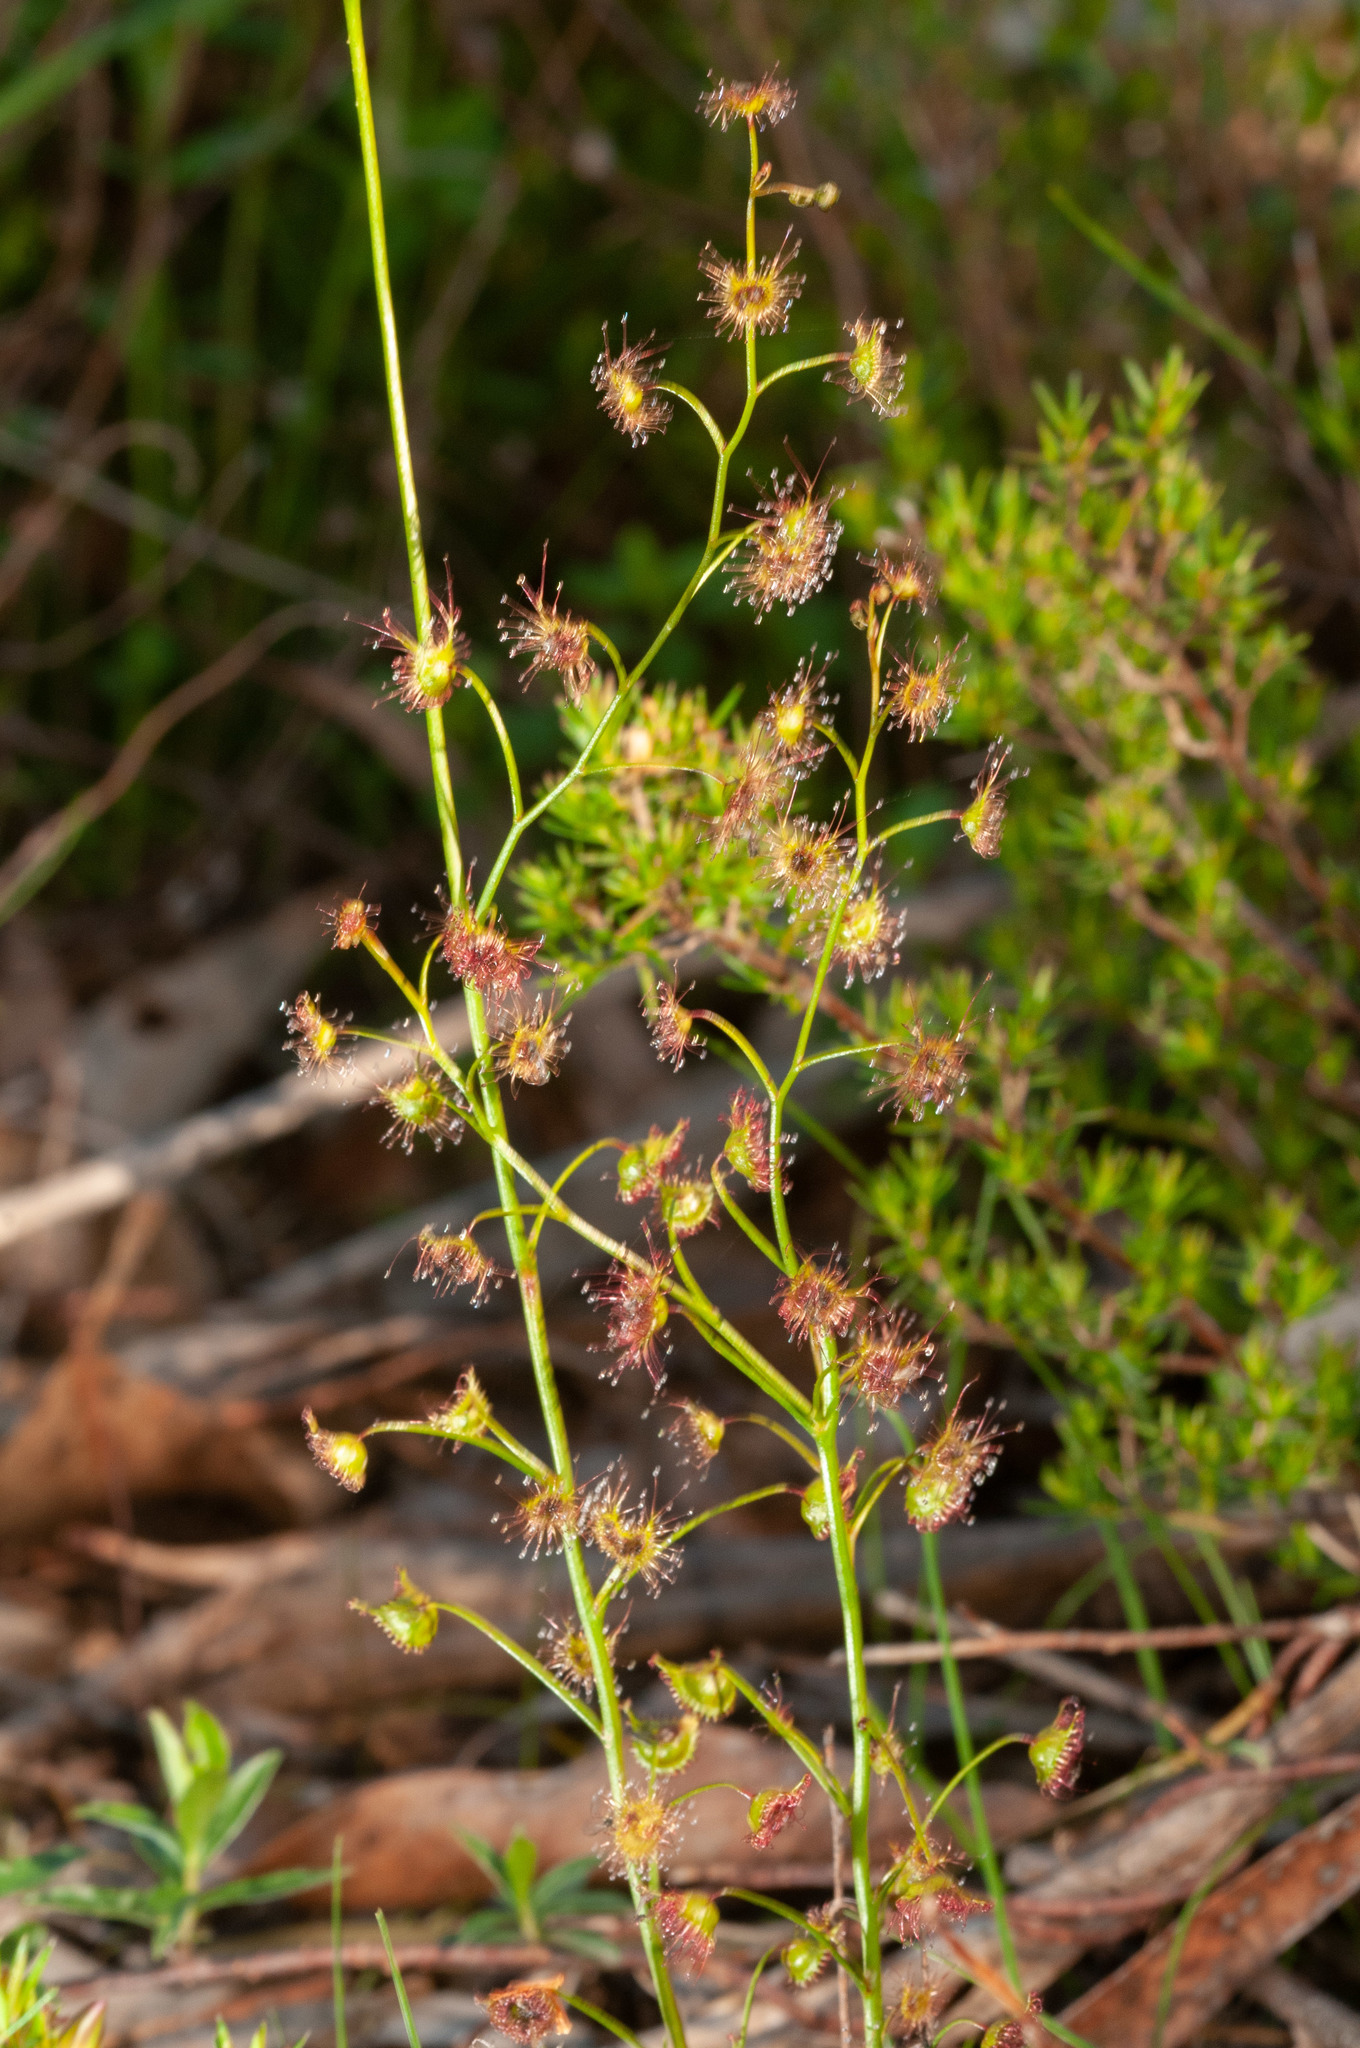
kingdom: Plantae
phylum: Tracheophyta
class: Magnoliopsida
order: Caryophyllales
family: Droseraceae
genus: Drosera
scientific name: Drosera peltata
